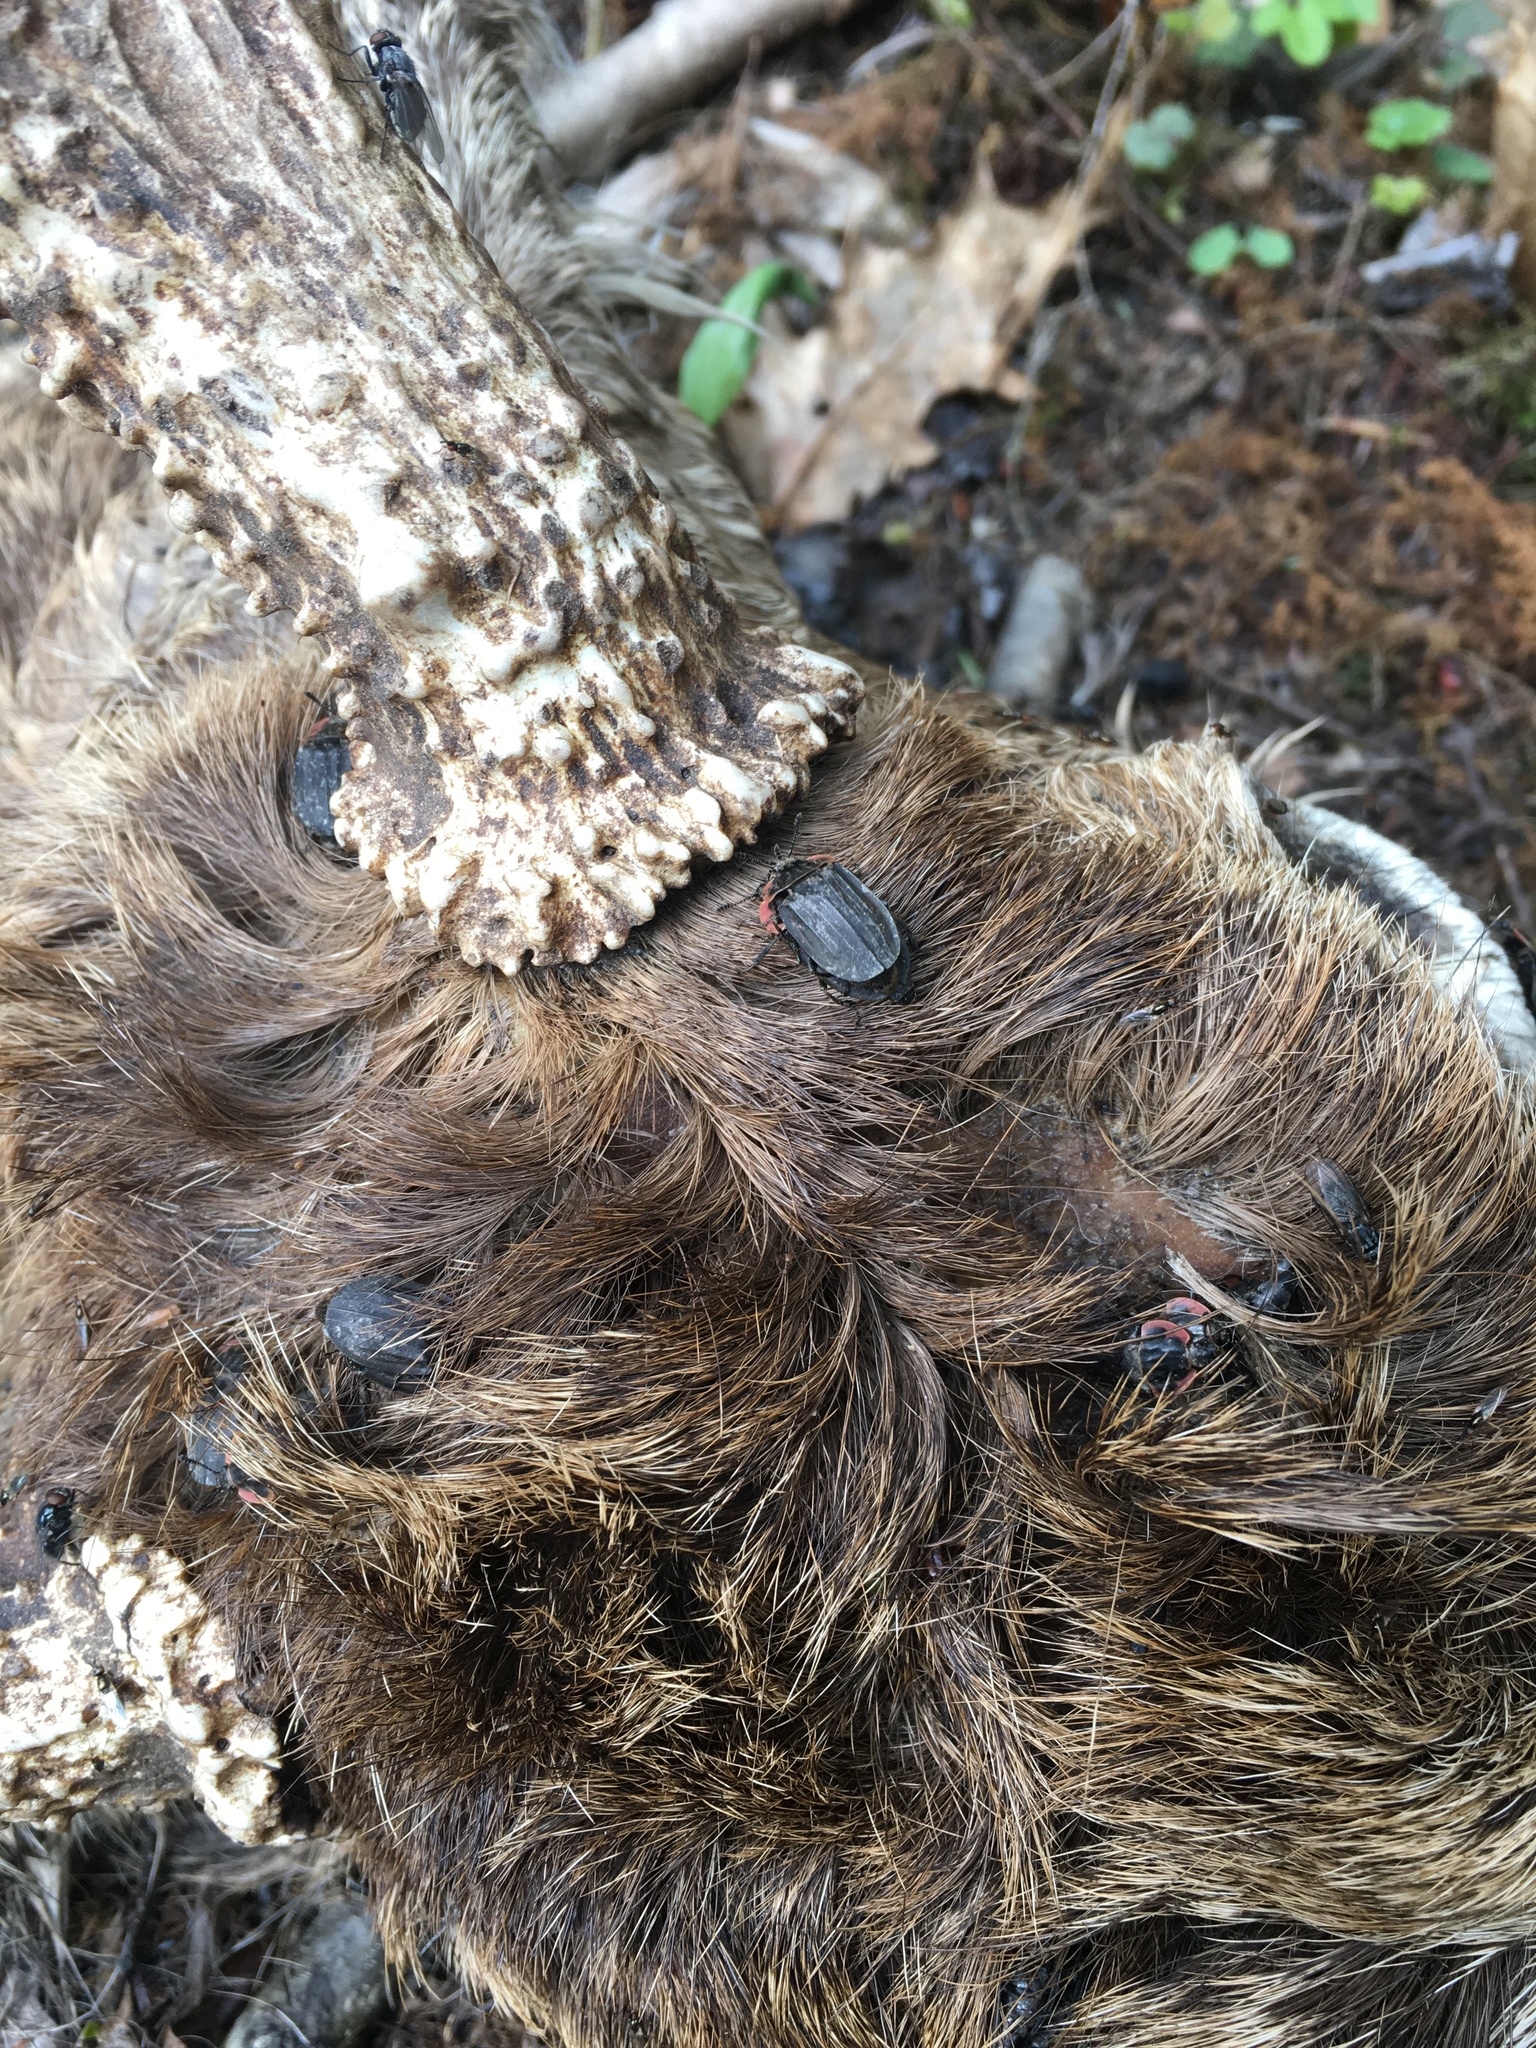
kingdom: Animalia
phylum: Arthropoda
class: Insecta
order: Coleoptera
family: Staphylinidae
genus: Oiceoptoma
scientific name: Oiceoptoma noveboracense
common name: Margined carrion beetle
